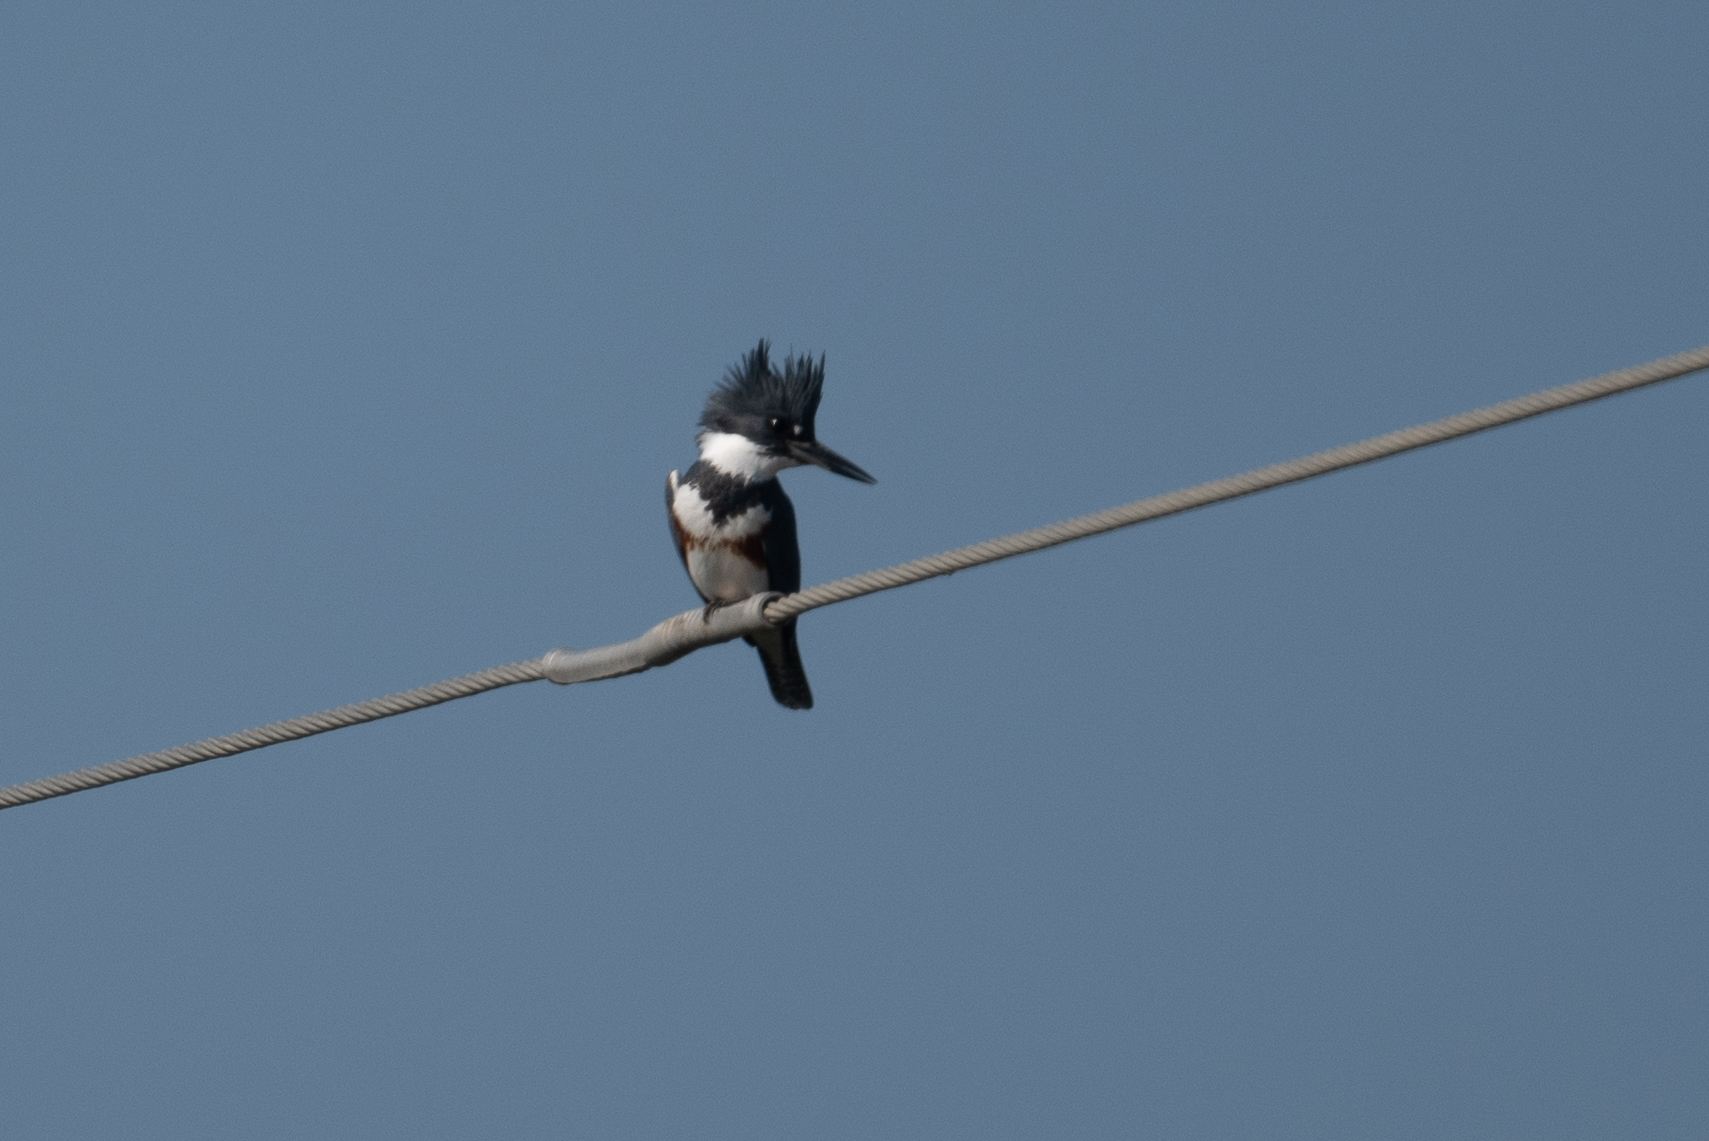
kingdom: Animalia
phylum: Chordata
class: Aves
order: Coraciiformes
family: Alcedinidae
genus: Megaceryle
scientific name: Megaceryle alcyon
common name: Belted kingfisher
